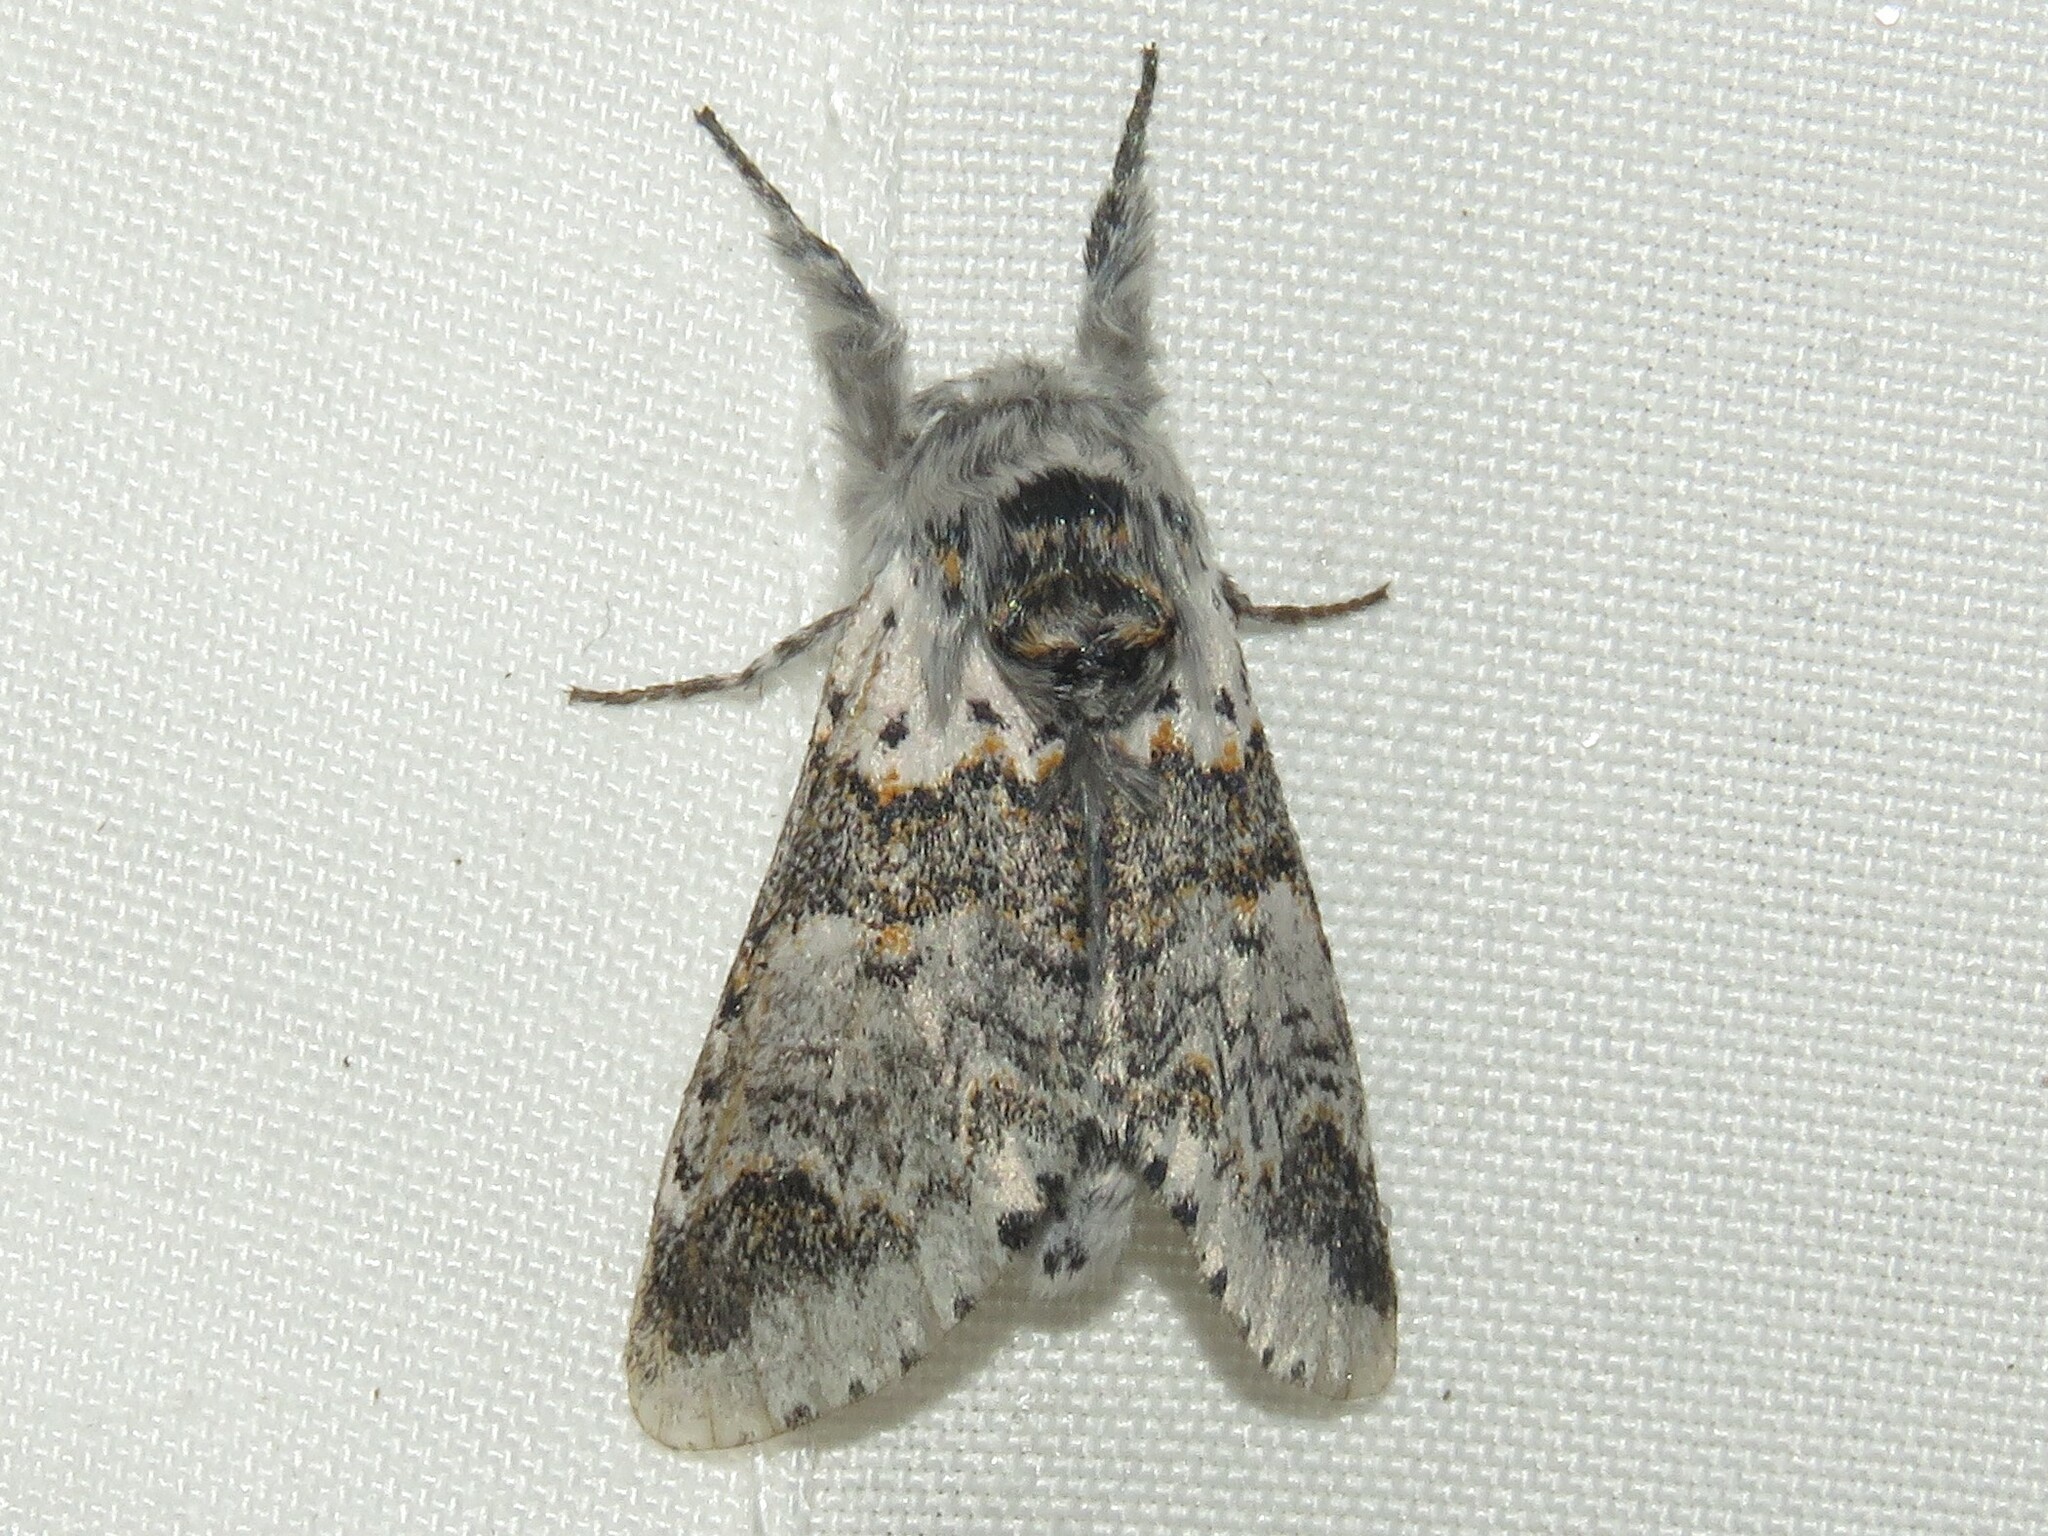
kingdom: Animalia
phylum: Arthropoda
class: Insecta
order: Lepidoptera
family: Notodontidae
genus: Furcula
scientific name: Furcula occidentalis
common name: Western furcula moth
